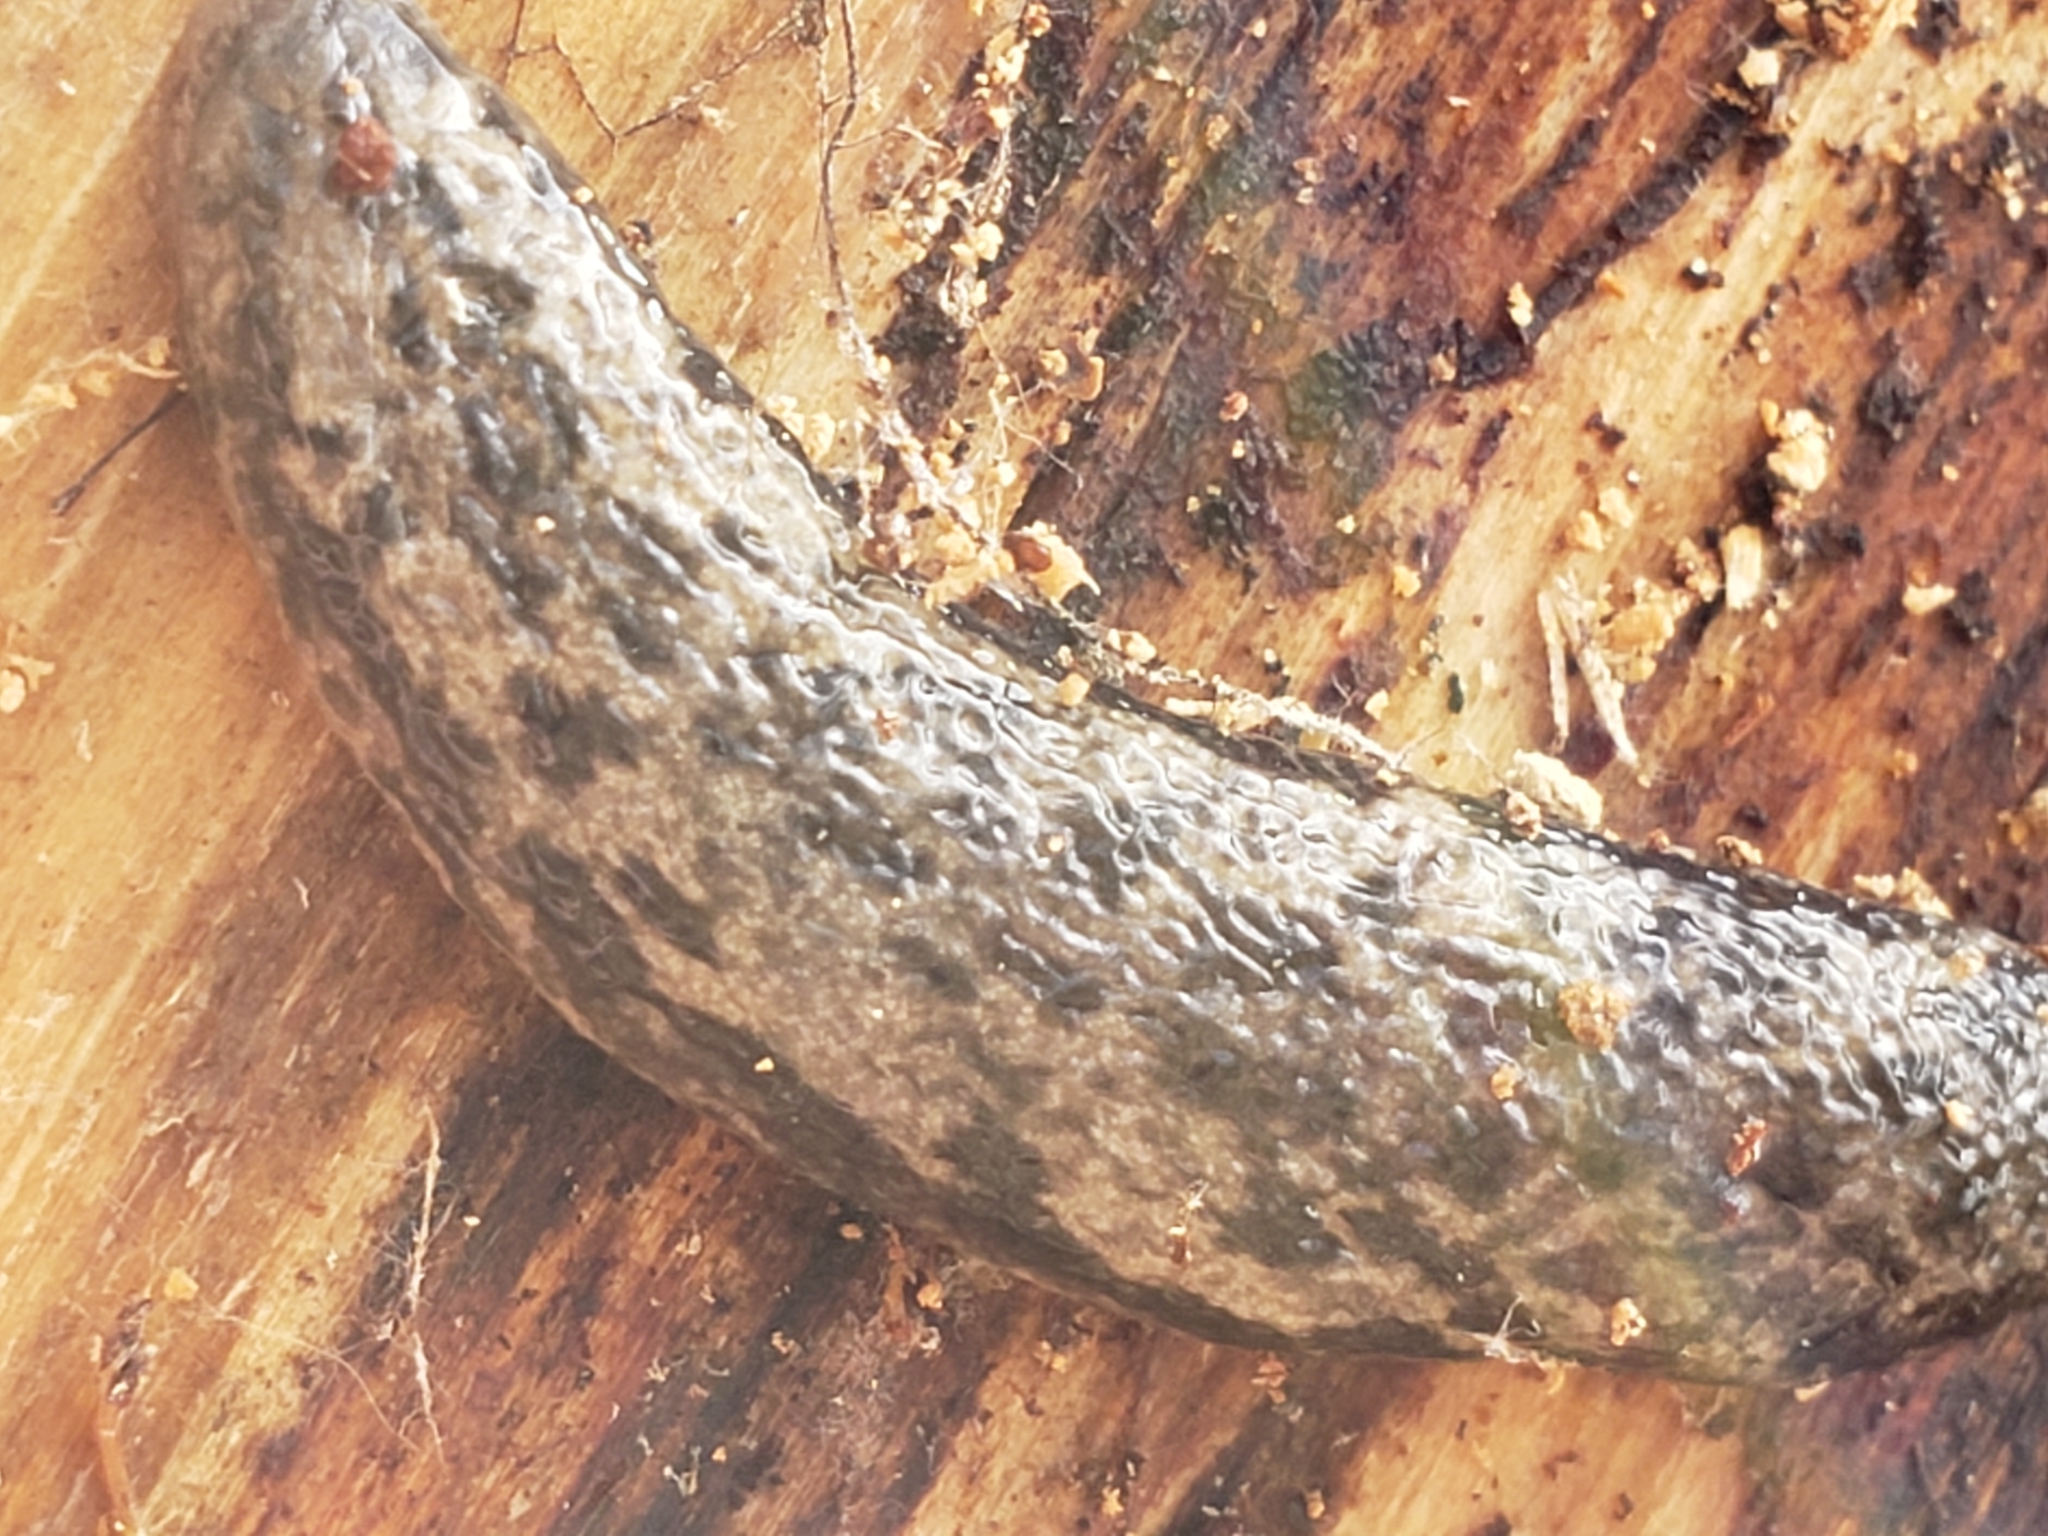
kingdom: Animalia
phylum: Mollusca
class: Gastropoda
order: Stylommatophora
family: Philomycidae
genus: Megapallifera
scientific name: Megapallifera mutabilis
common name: Changeable mantleslug
